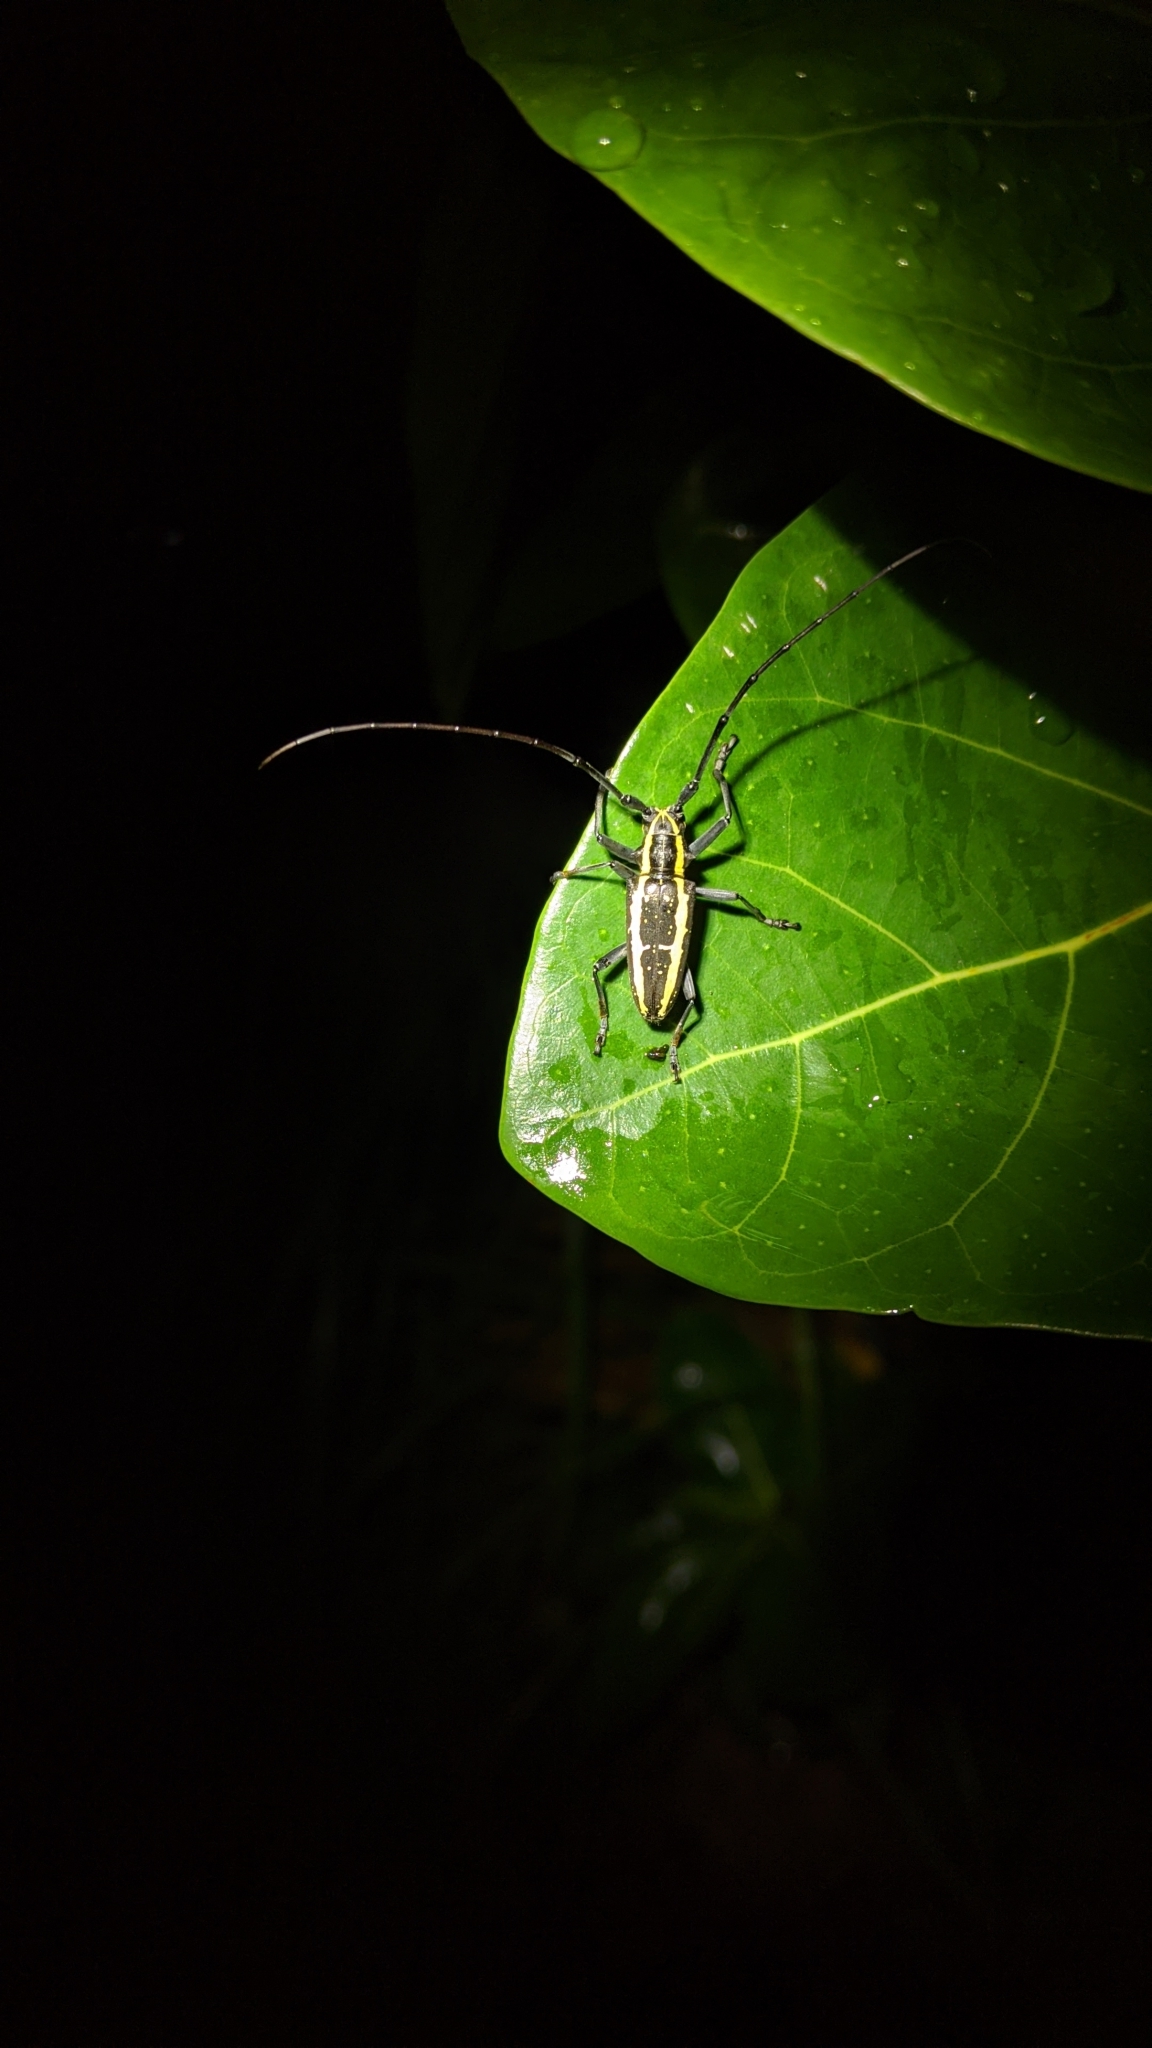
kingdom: Animalia
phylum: Arthropoda
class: Insecta
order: Coleoptera
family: Cerambycidae
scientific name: Cerambycidae
